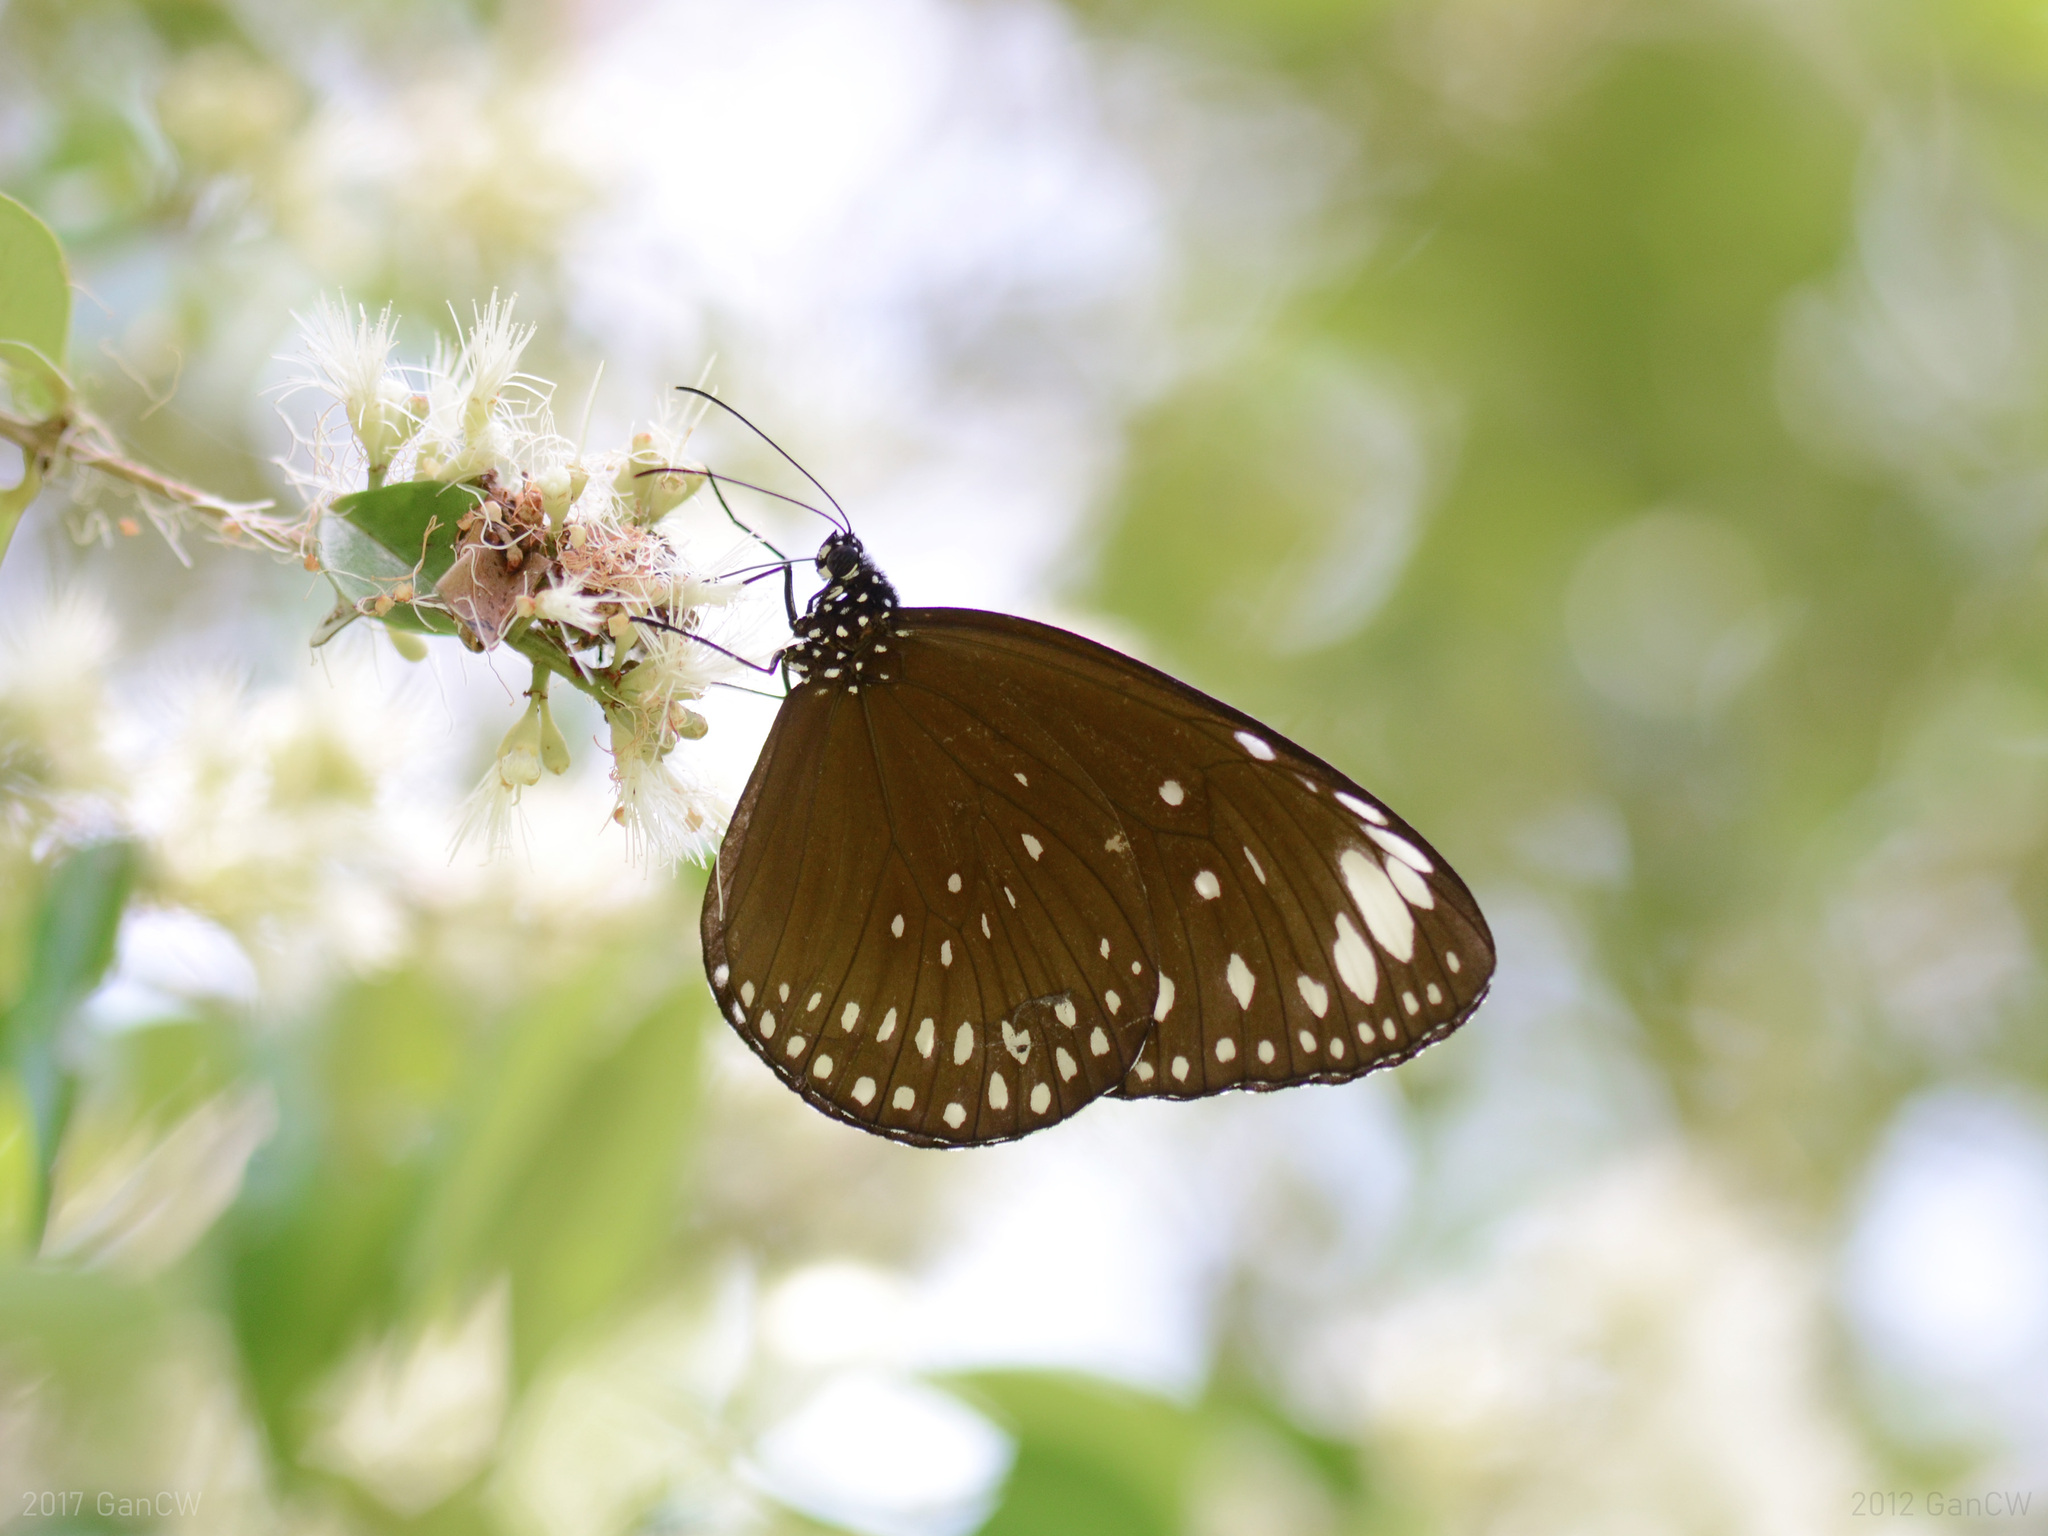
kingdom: Animalia
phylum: Arthropoda
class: Insecta
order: Lepidoptera
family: Nymphalidae
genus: Euploea
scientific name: Euploea crameri
